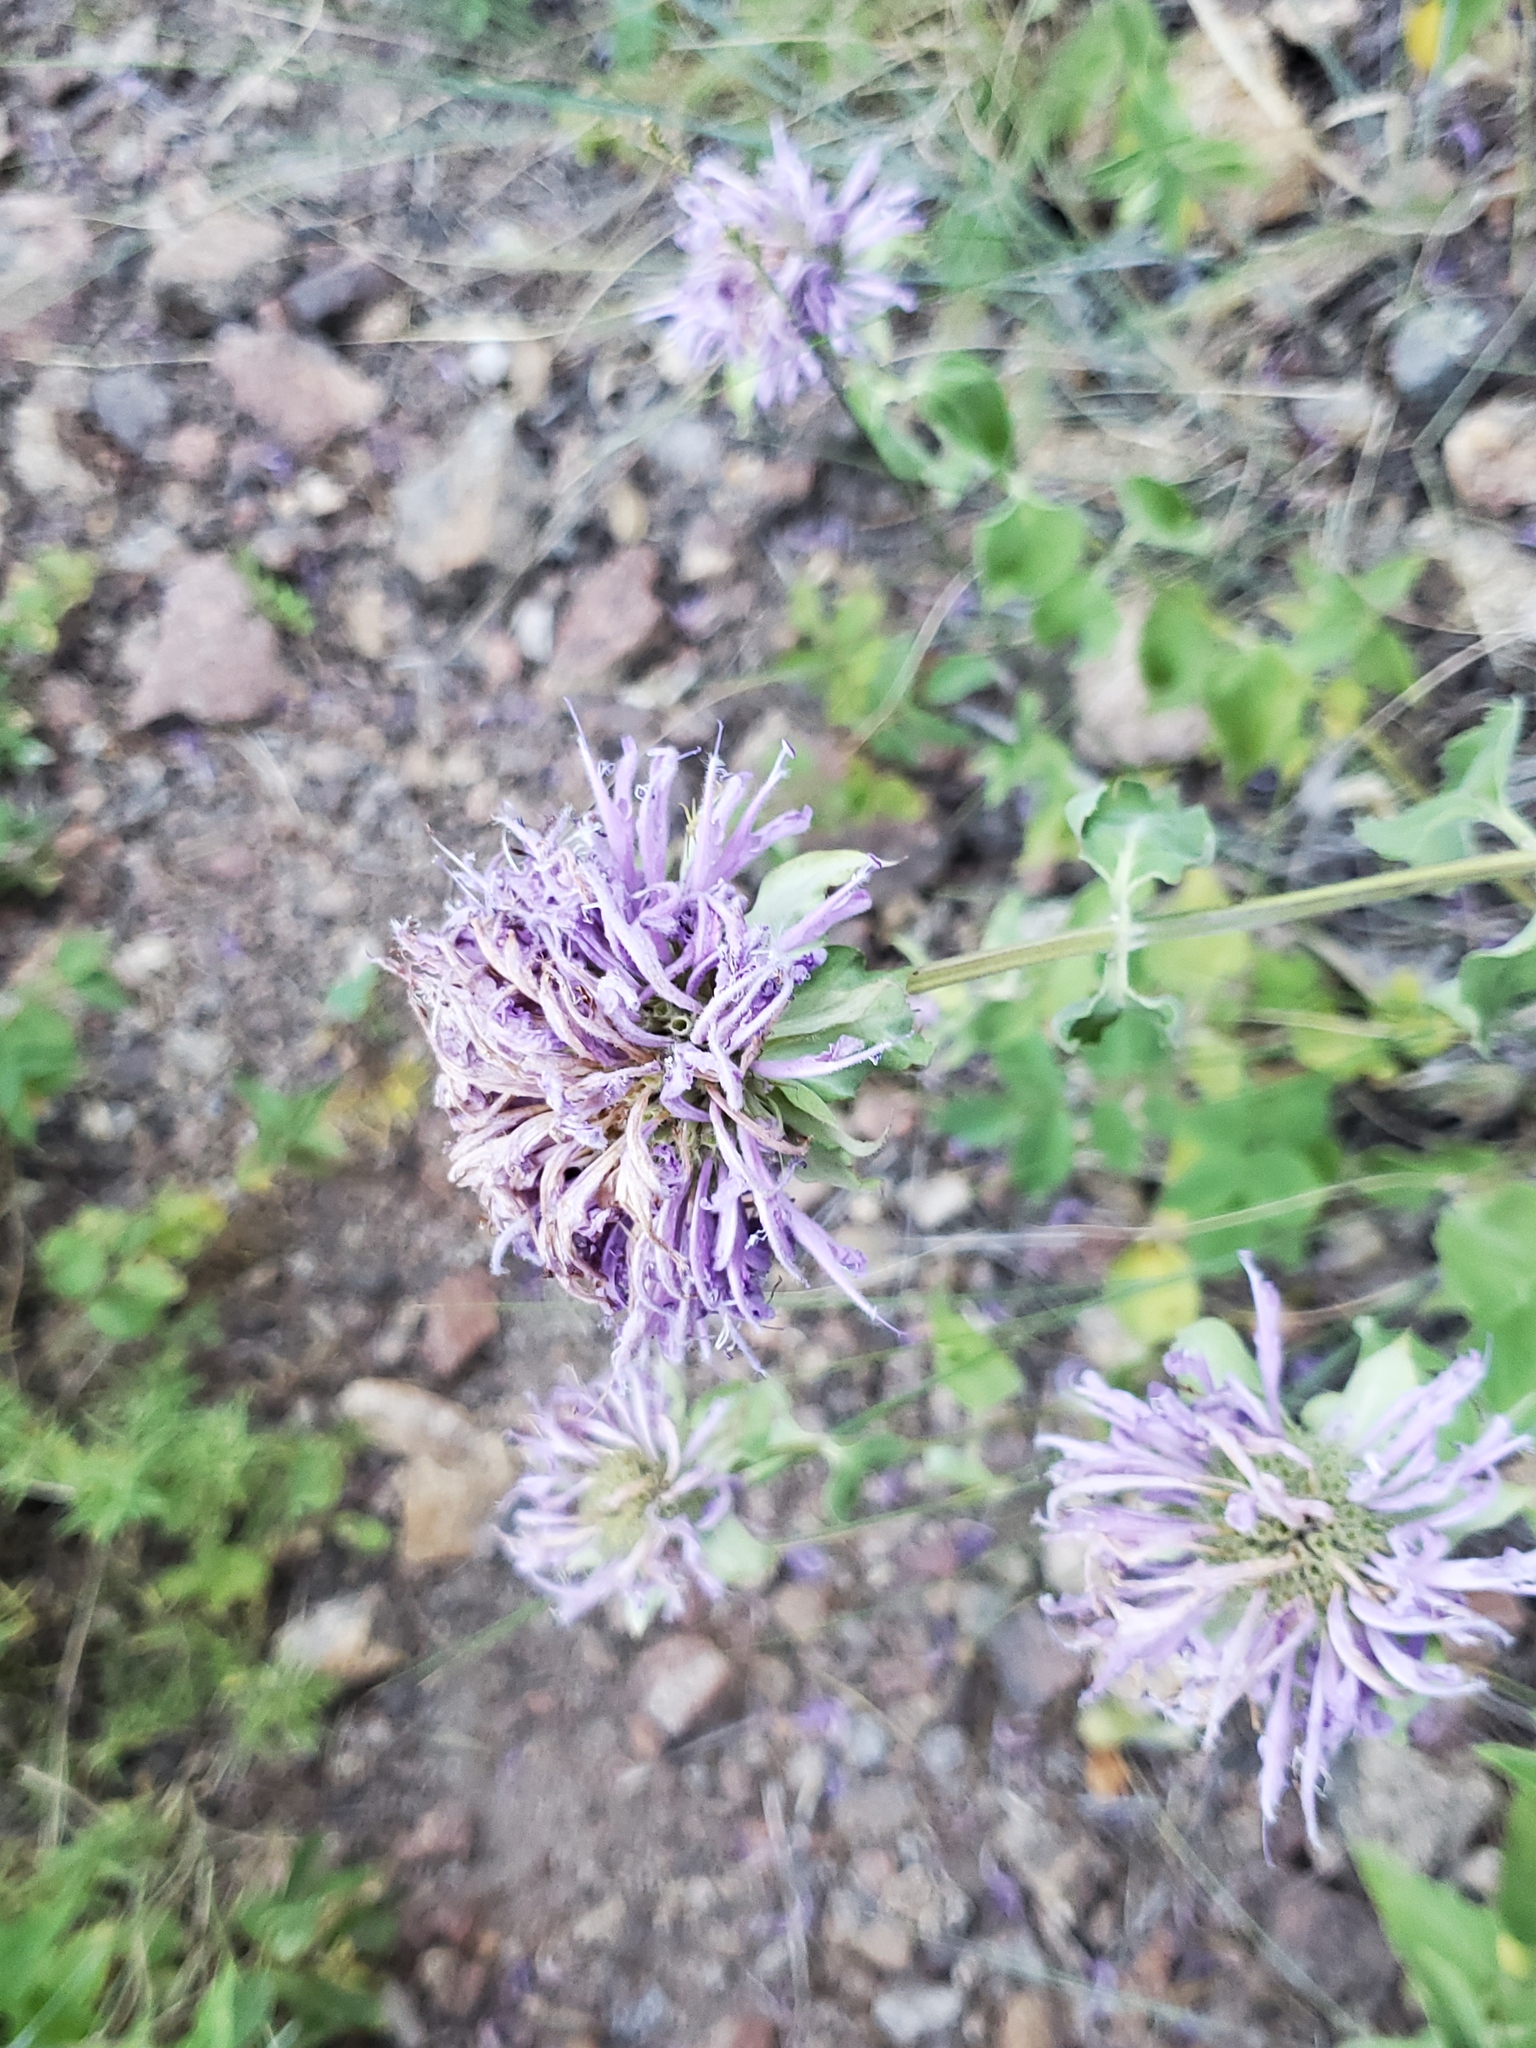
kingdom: Plantae
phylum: Tracheophyta
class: Magnoliopsida
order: Lamiales
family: Lamiaceae
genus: Monarda
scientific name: Monarda fistulosa
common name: Purple beebalm
